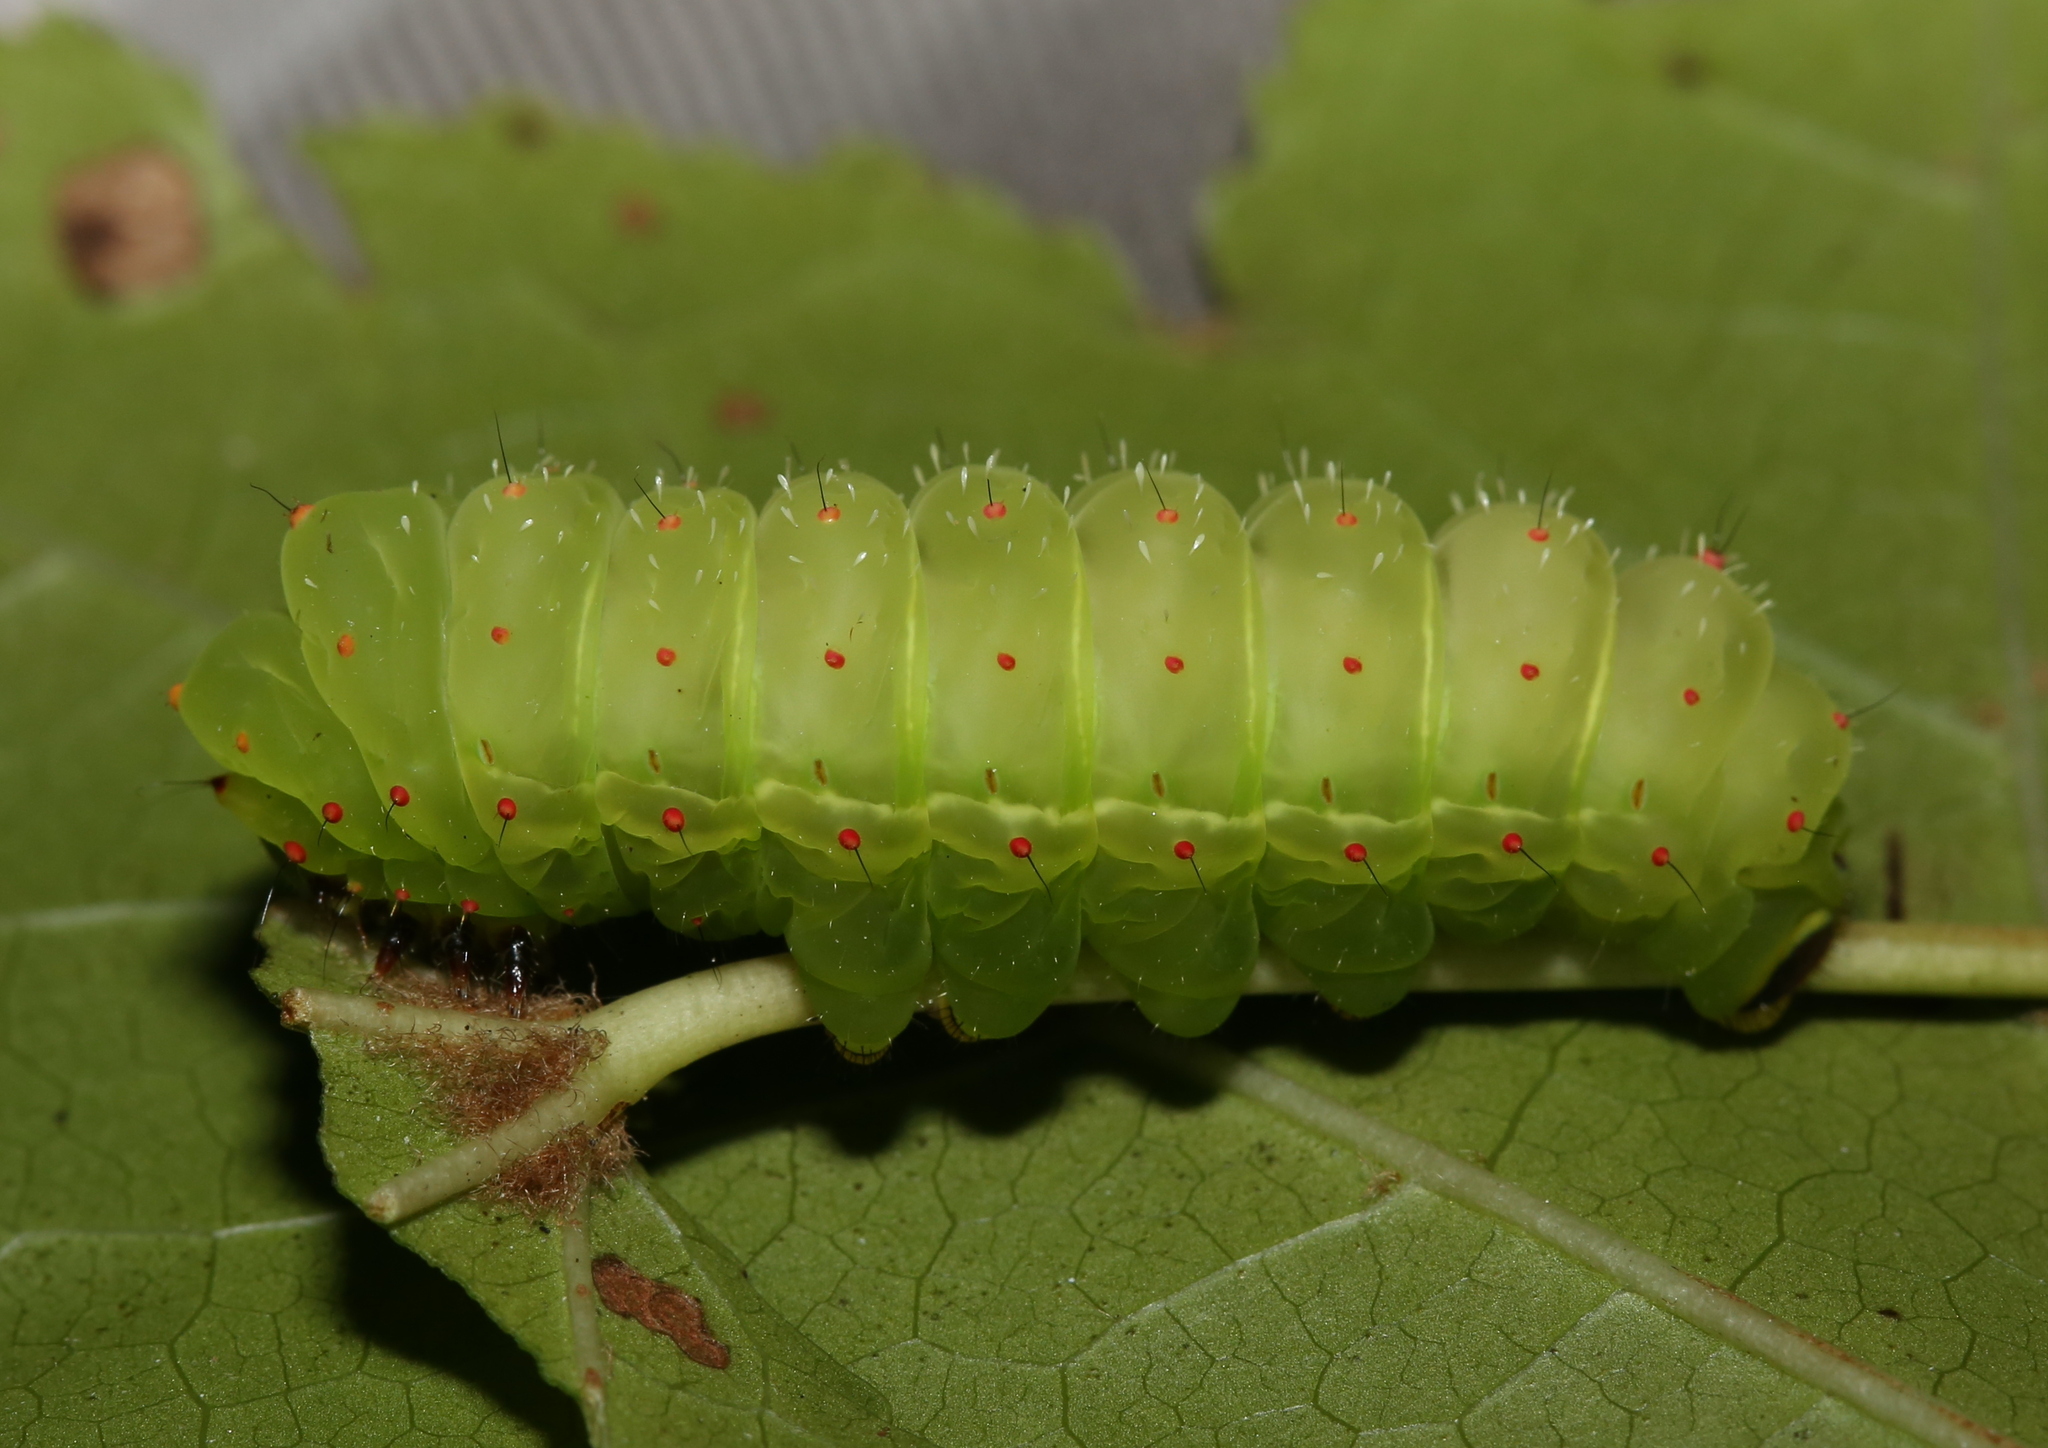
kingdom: Animalia
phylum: Arthropoda
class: Insecta
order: Lepidoptera
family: Saturniidae
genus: Actias
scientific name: Actias luna
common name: Luna moth
